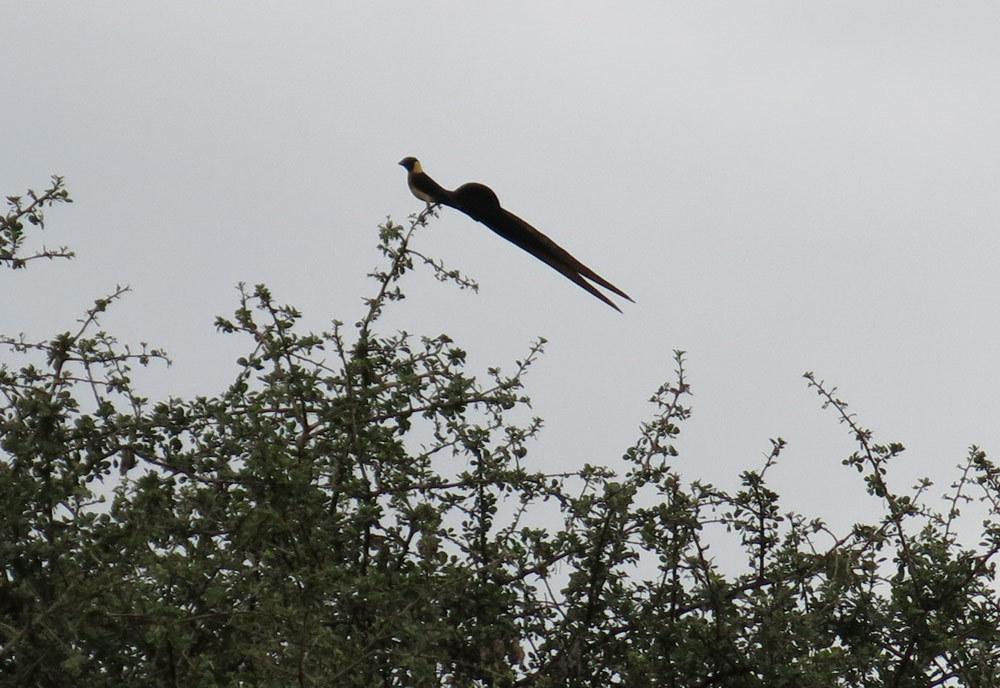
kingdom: Animalia
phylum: Chordata
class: Aves
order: Passeriformes
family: Viduidae
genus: Vidua
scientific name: Vidua paradisaea
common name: Long-tailed paradise whydah
